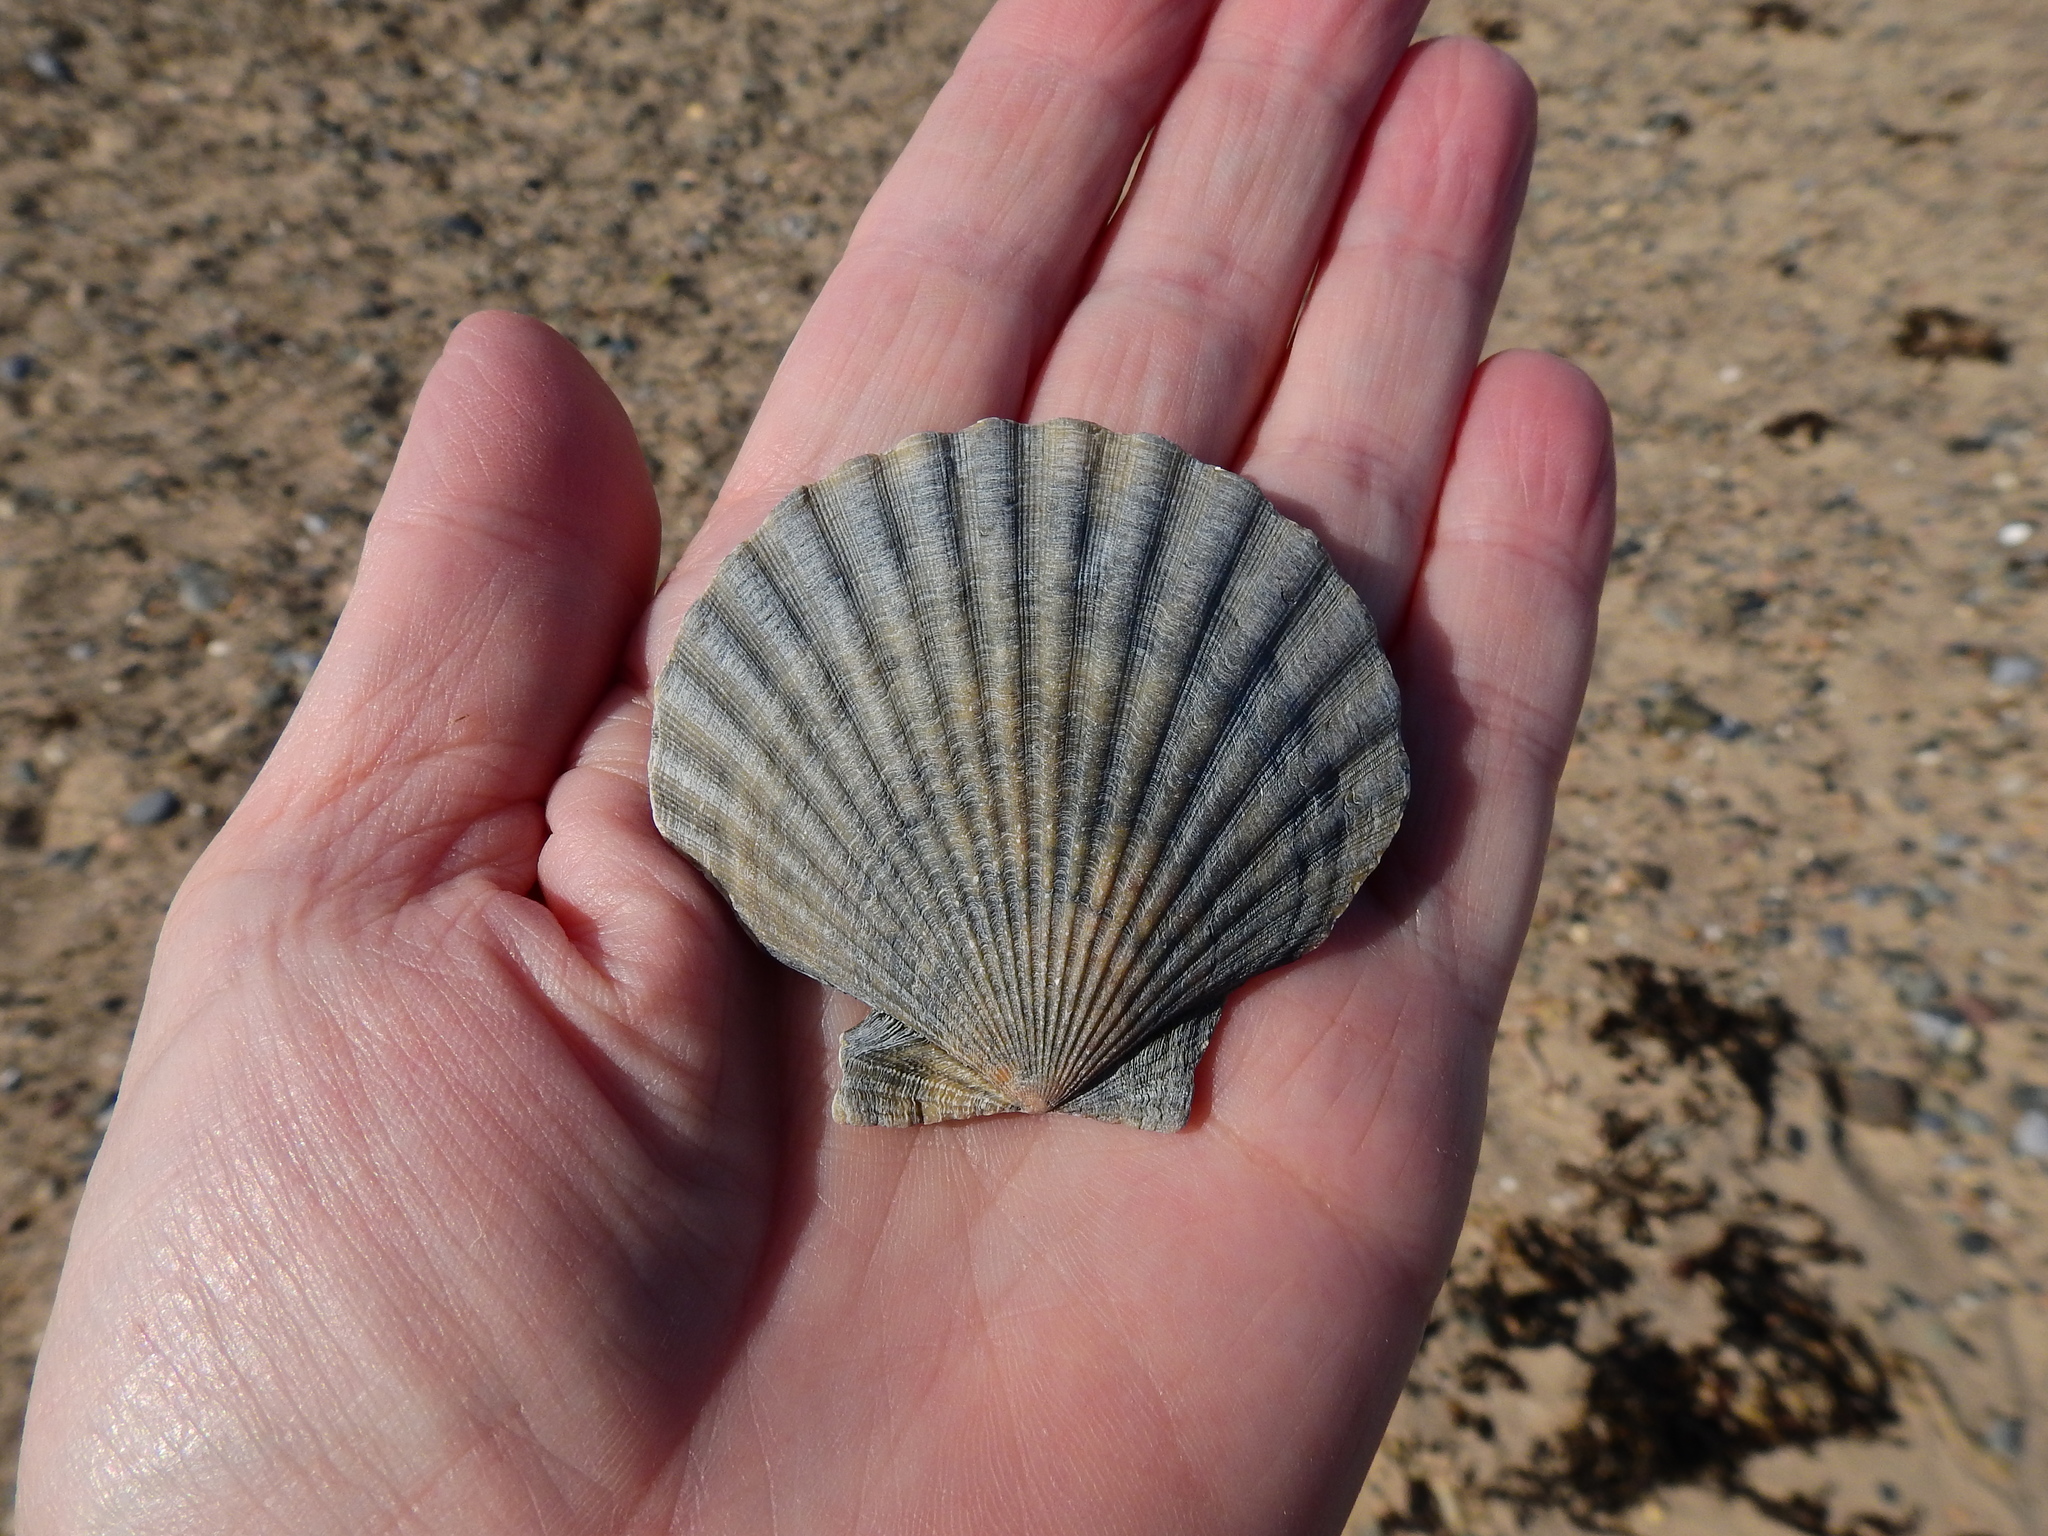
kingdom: Animalia
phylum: Mollusca
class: Bivalvia
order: Pectinida
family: Pectinidae
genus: Aequipecten
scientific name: Aequipecten opercularis
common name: Queen scallop
